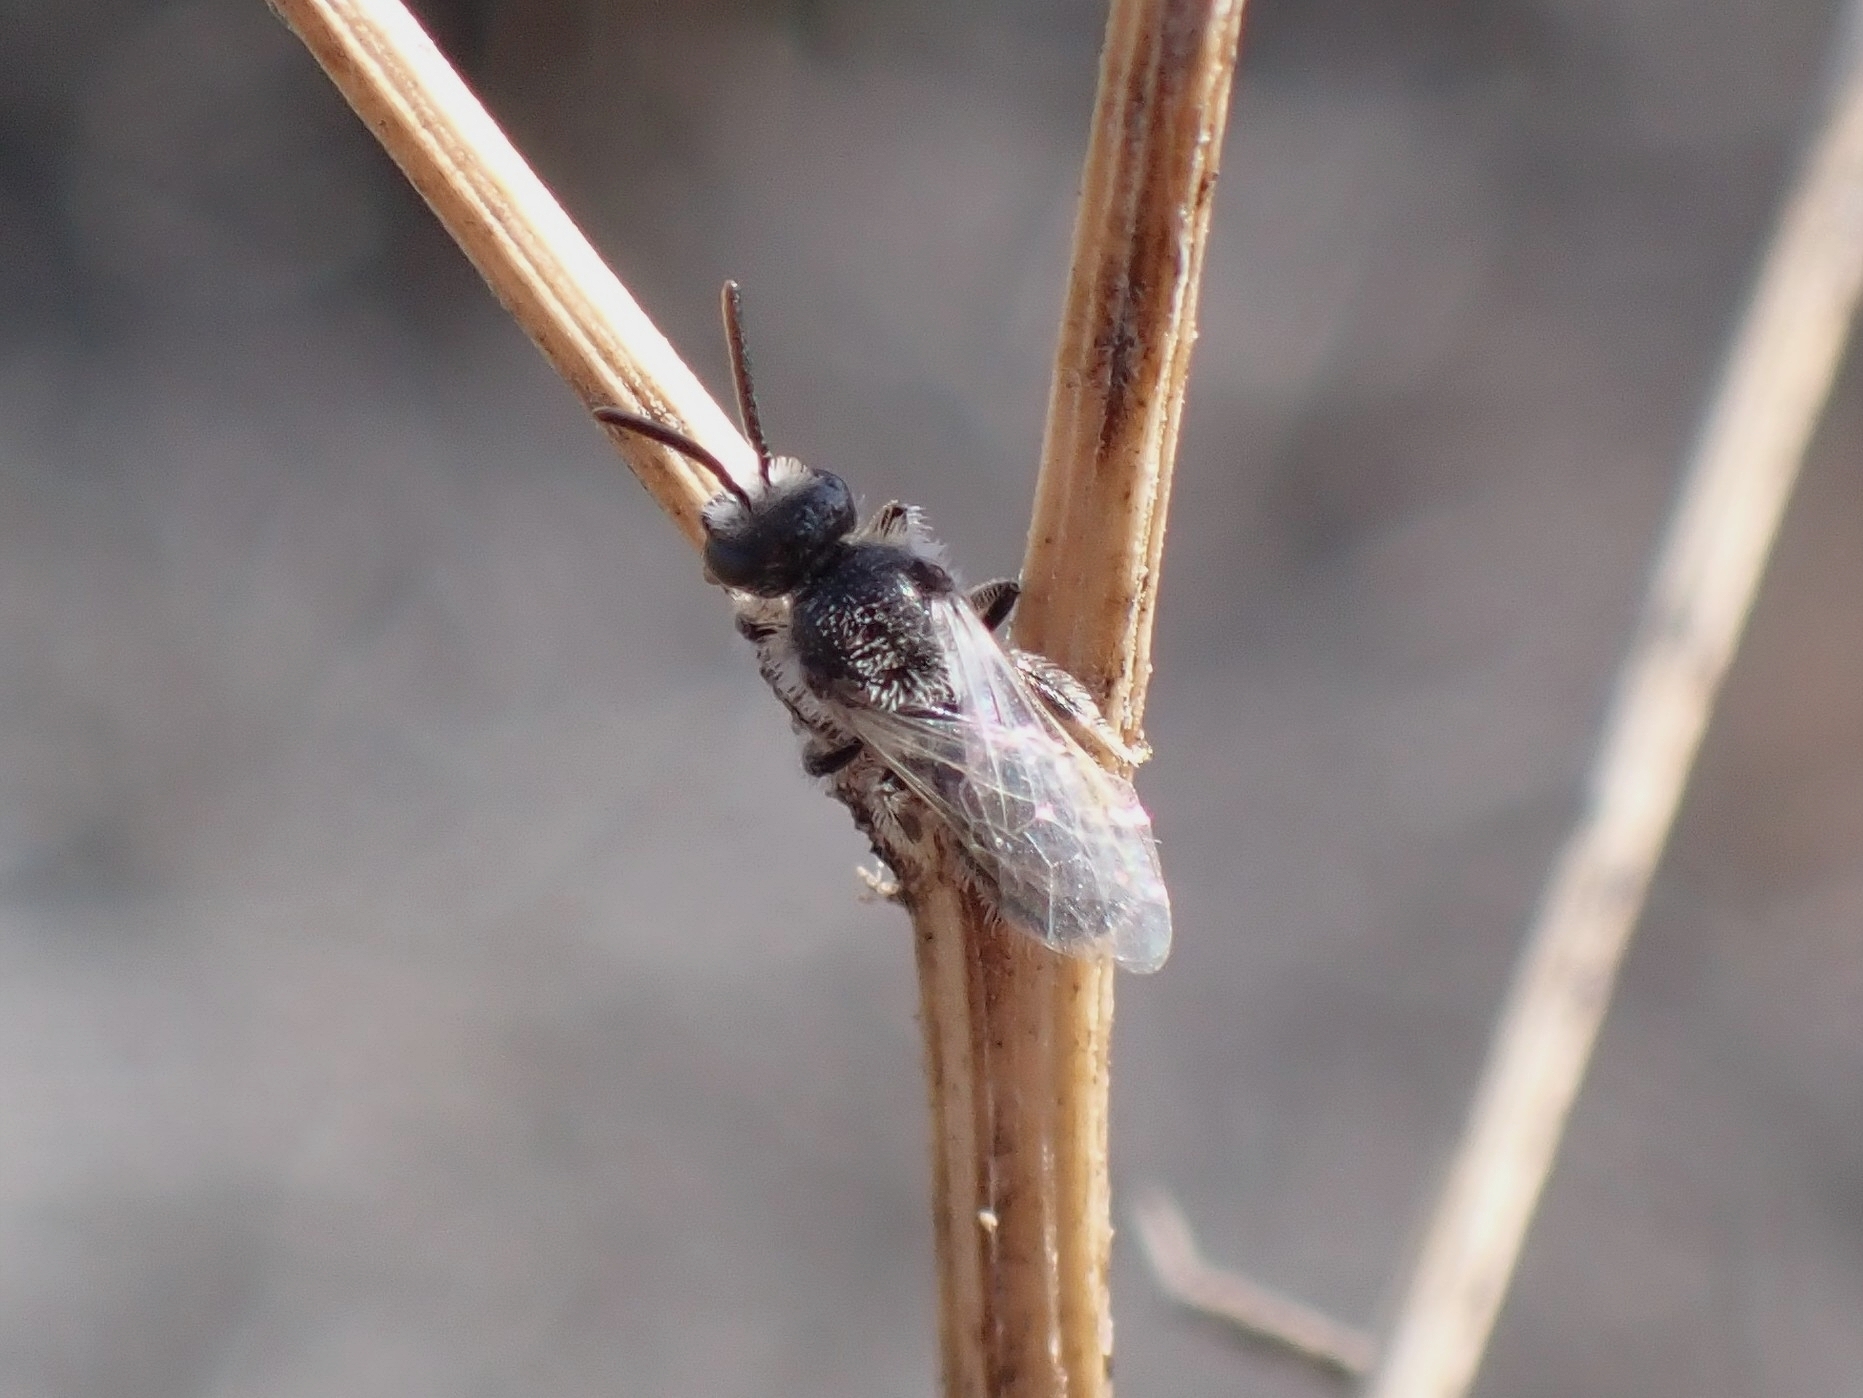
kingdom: Animalia
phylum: Arthropoda
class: Insecta
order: Hymenoptera
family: Halictidae
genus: Lasioglossum
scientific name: Lasioglossum brevicorne
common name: Short-horned furrow bee
